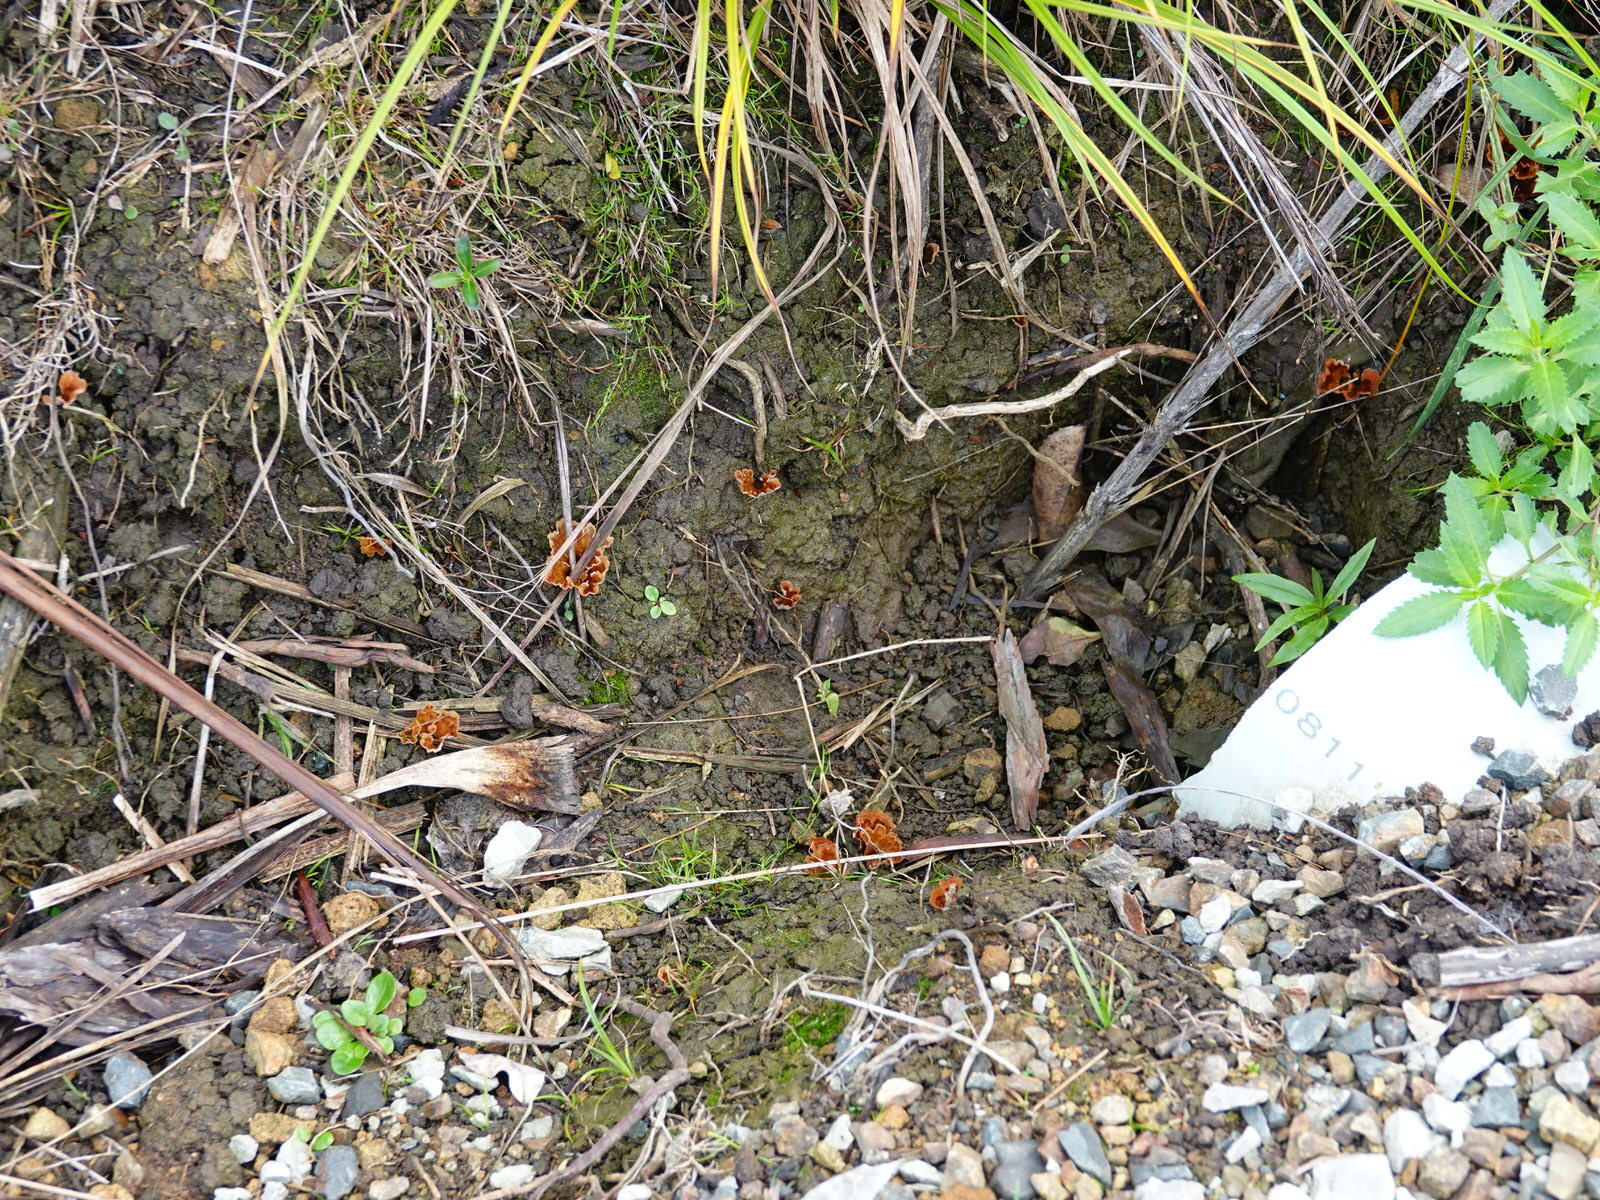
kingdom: Fungi
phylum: Basidiomycota
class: Agaricomycetes
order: Polyporales
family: Podoscyphaceae
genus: Podoscypha
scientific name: Podoscypha petalodes
